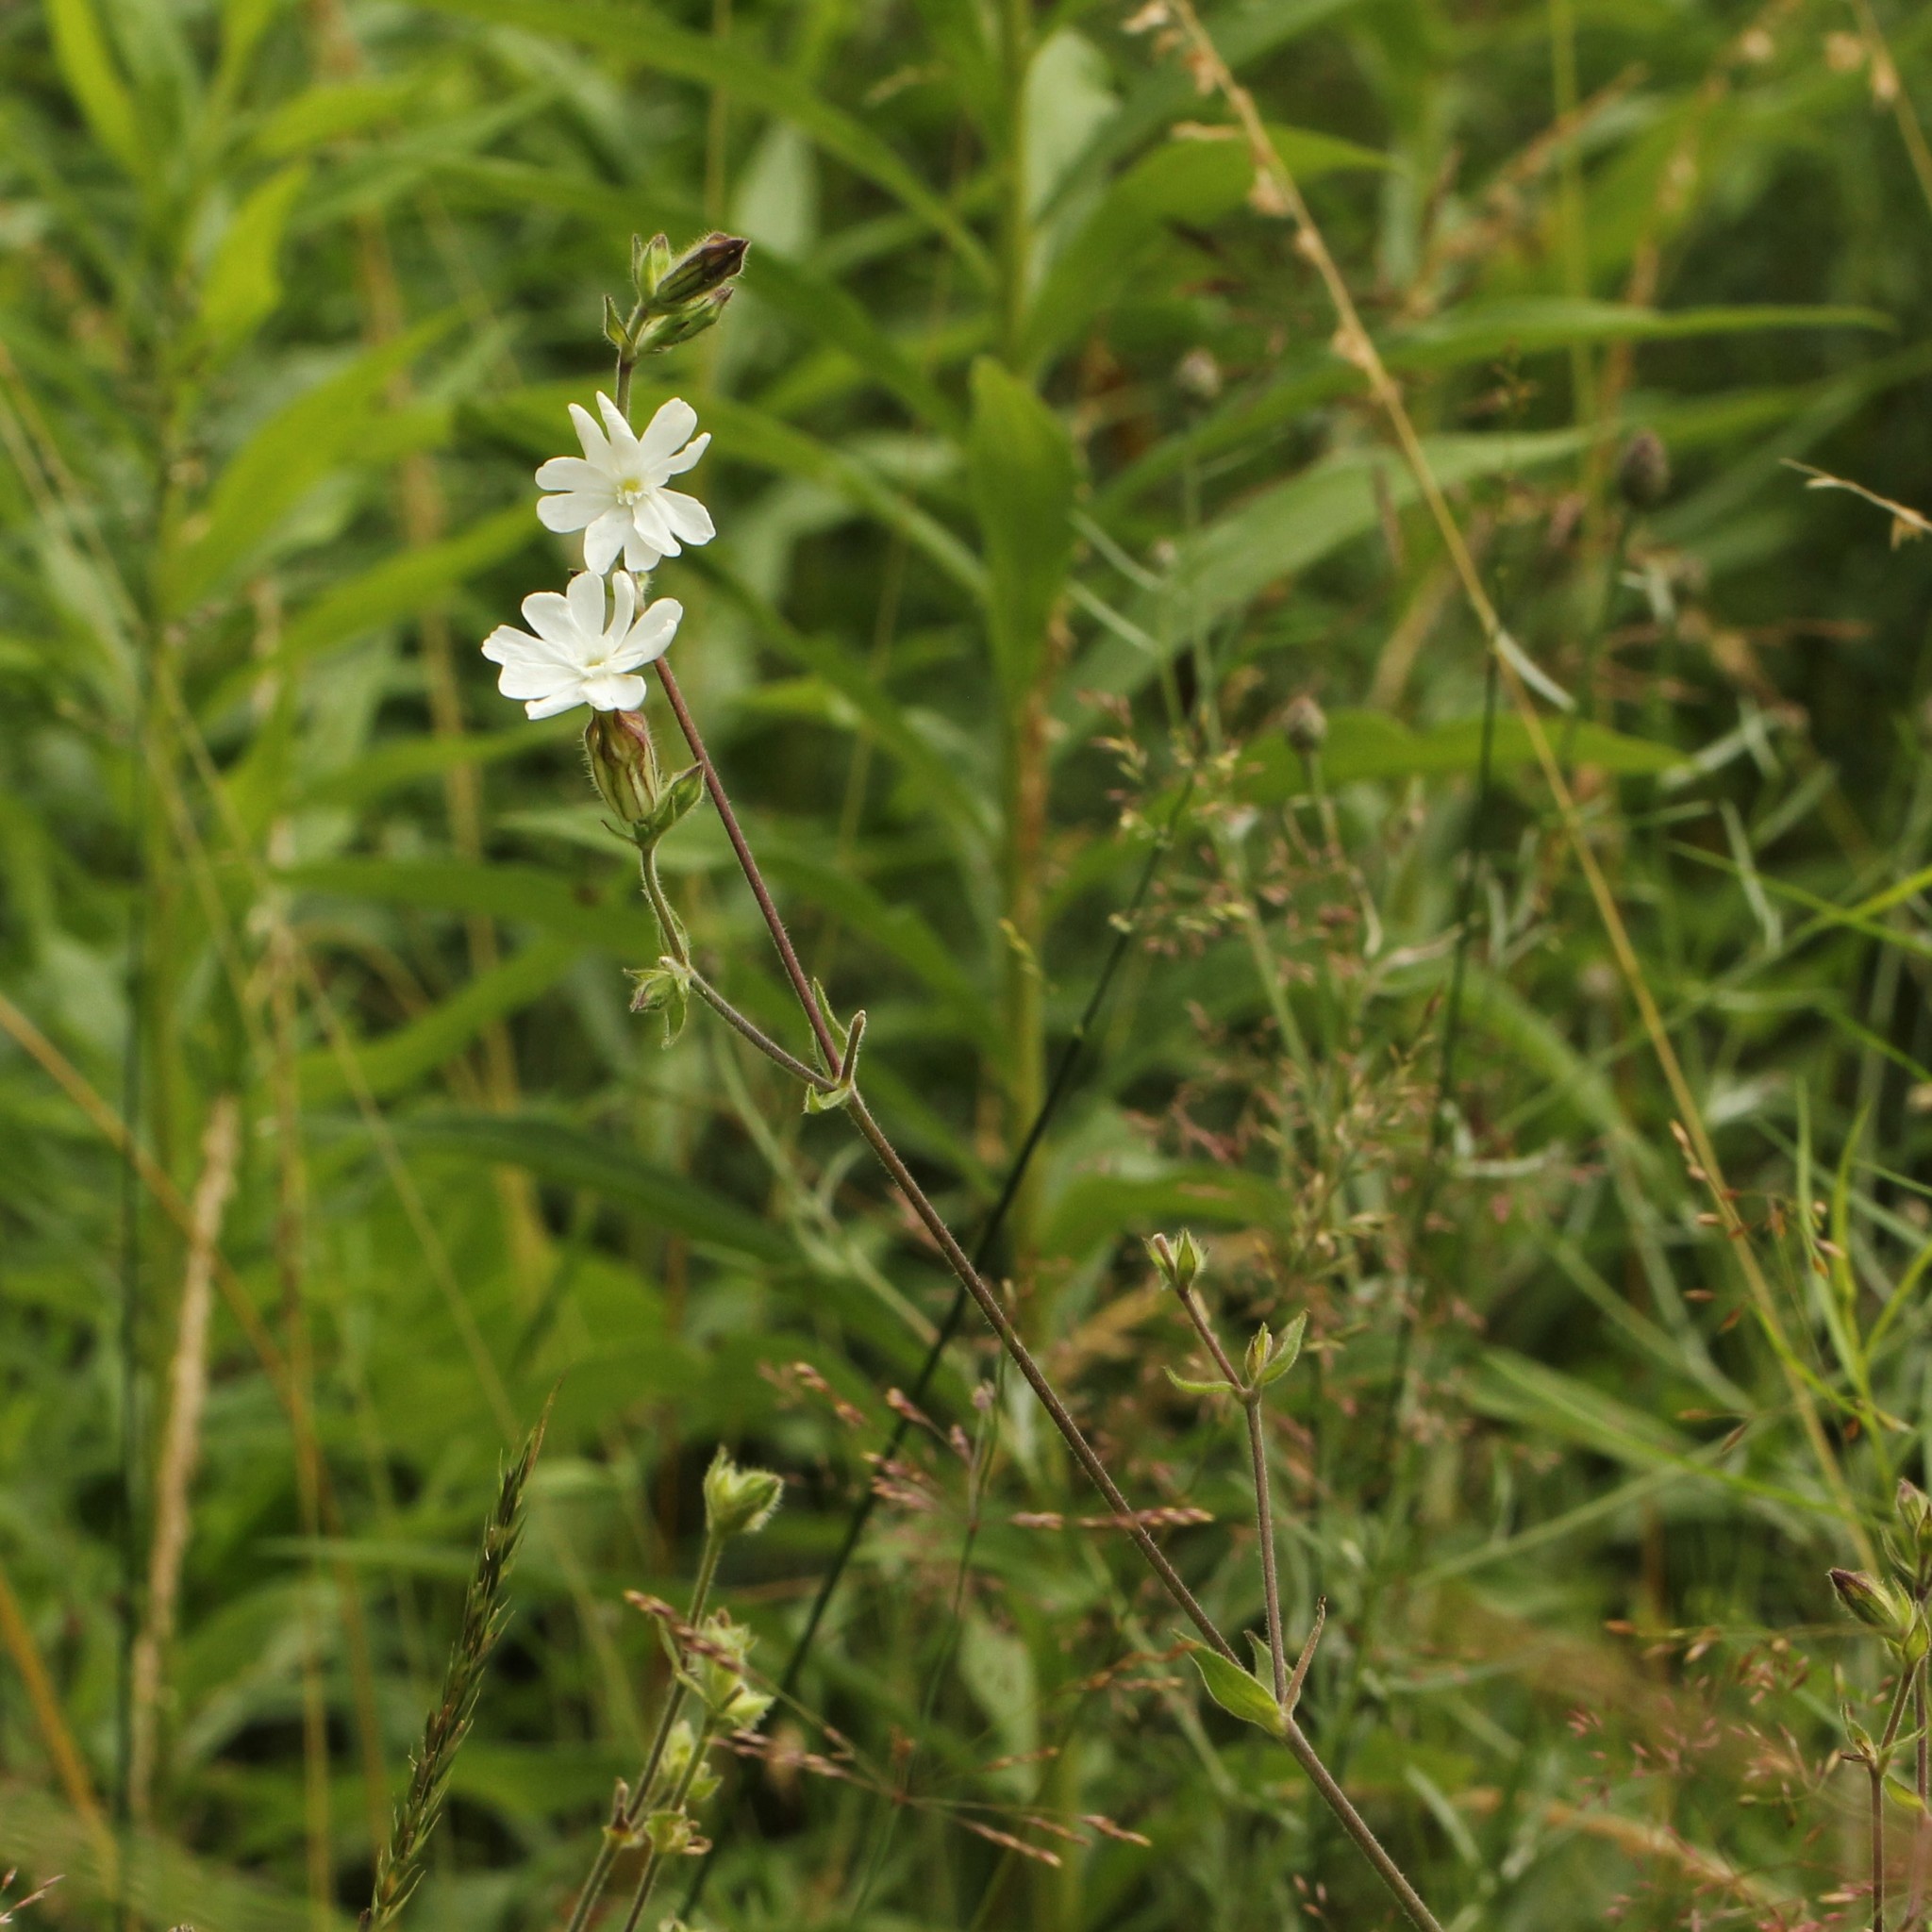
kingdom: Plantae
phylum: Tracheophyta
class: Magnoliopsida
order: Caryophyllales
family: Caryophyllaceae
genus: Silene
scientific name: Silene latifolia
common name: White campion
